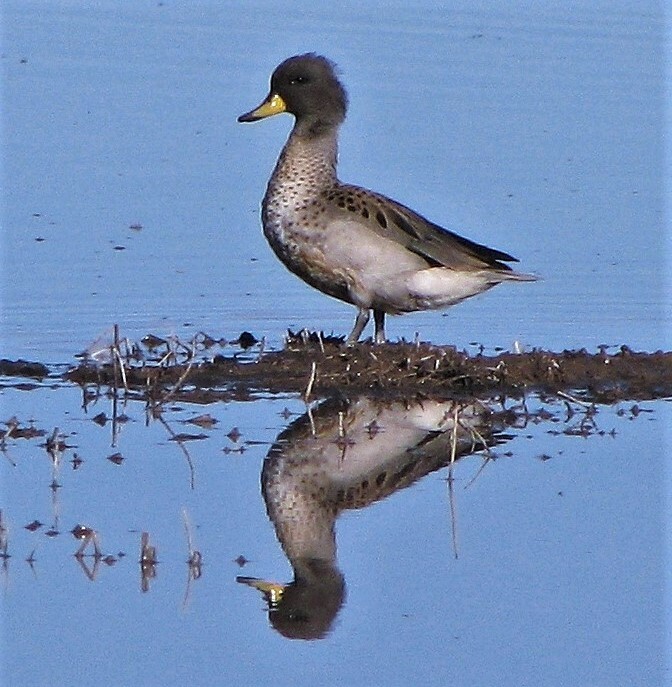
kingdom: Animalia
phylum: Chordata
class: Aves
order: Anseriformes
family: Anatidae
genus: Anas
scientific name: Anas flavirostris
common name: Yellow-billed teal
